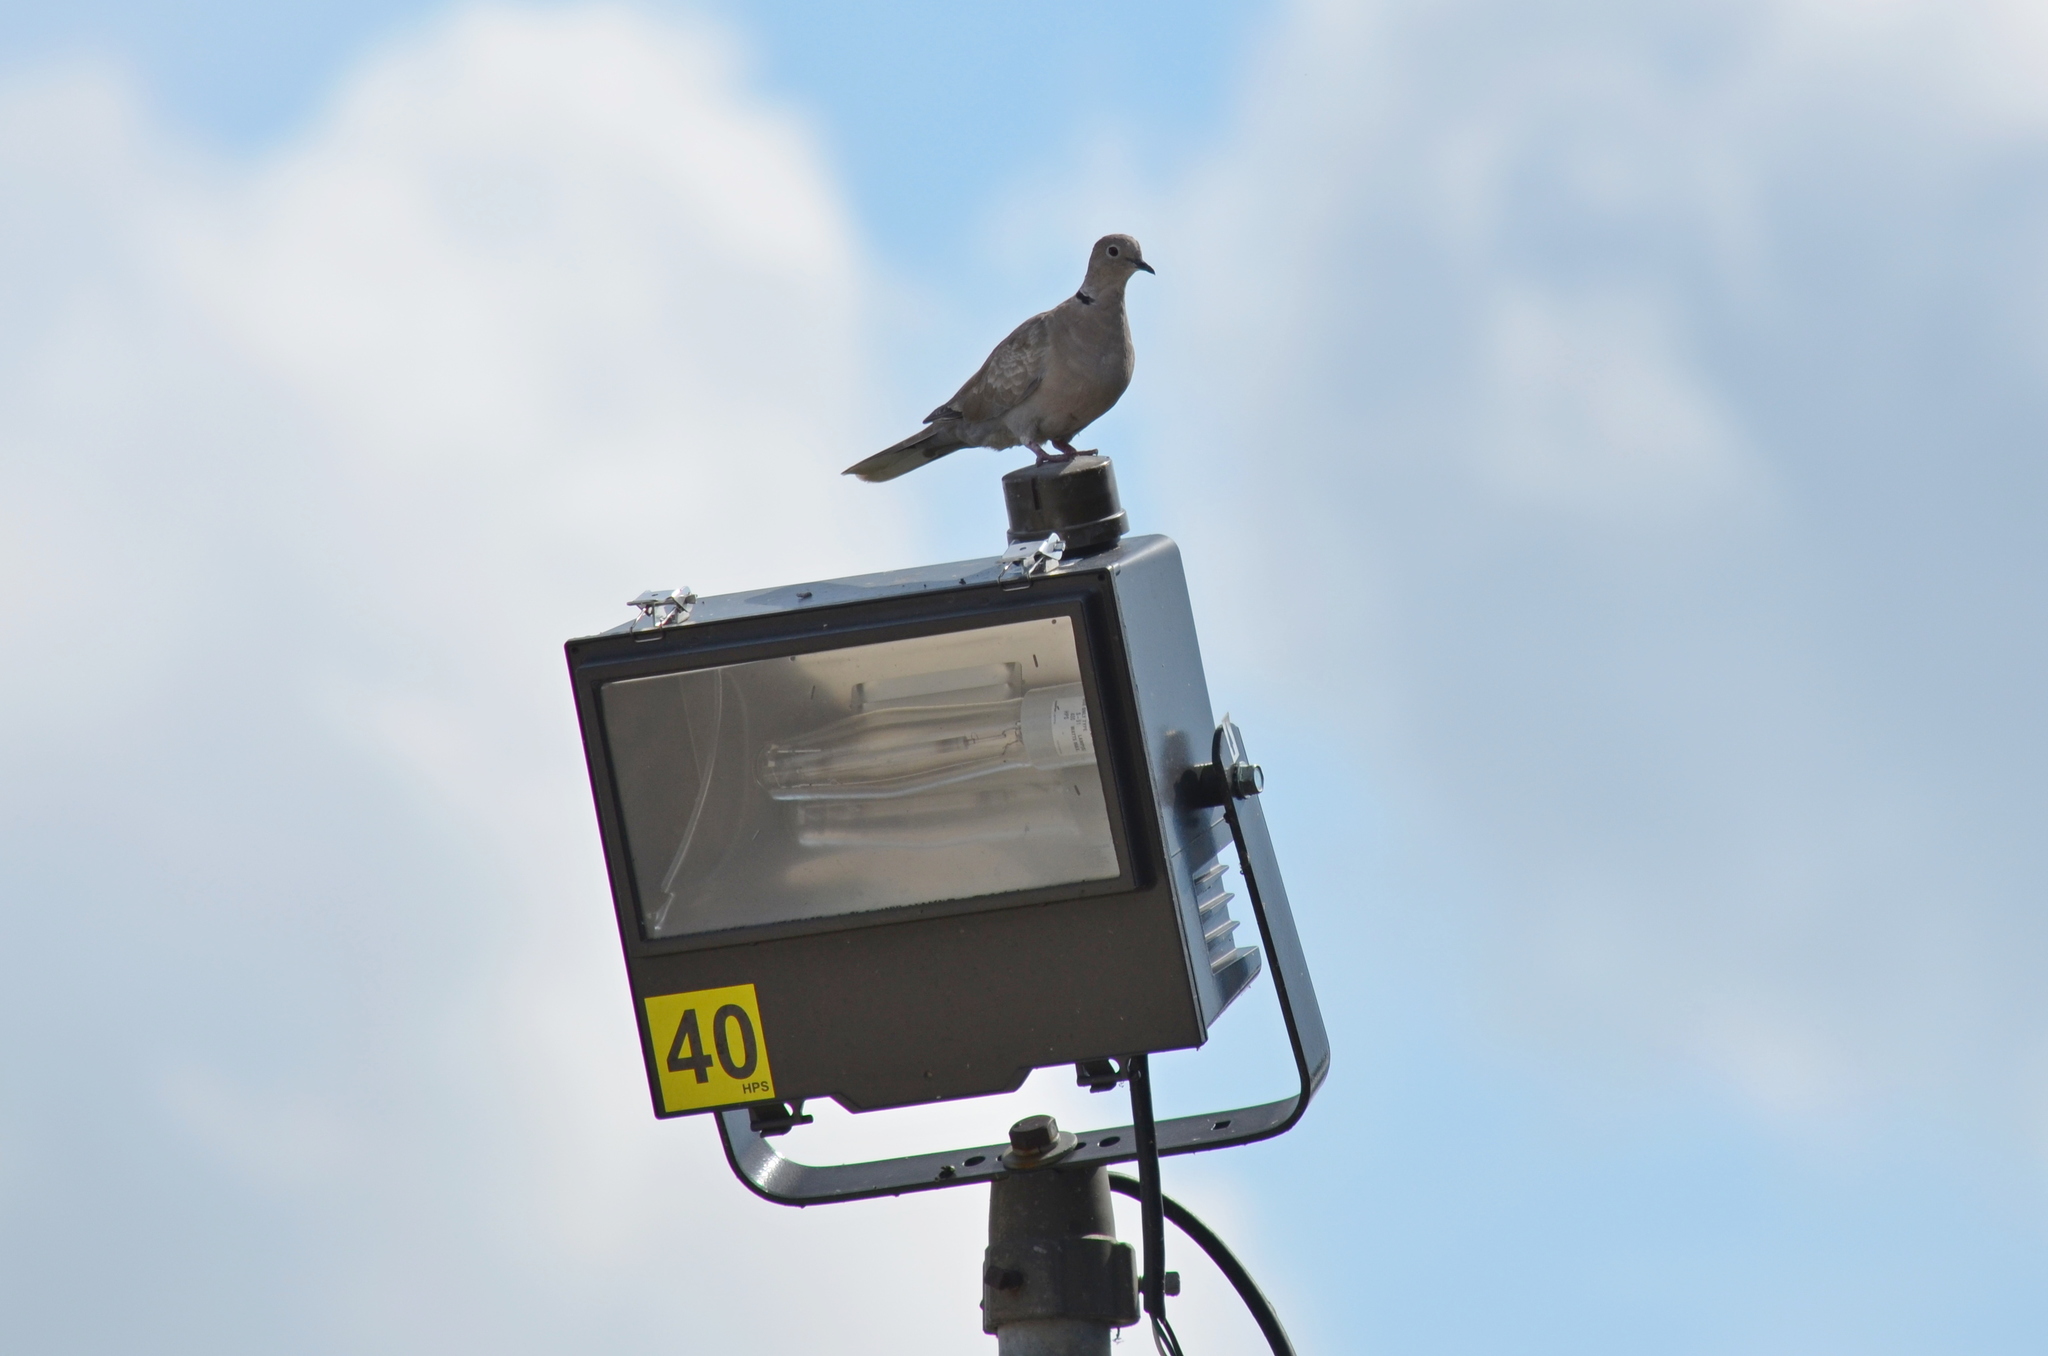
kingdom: Animalia
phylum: Chordata
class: Aves
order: Columbiformes
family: Columbidae
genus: Streptopelia
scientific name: Streptopelia decaocto
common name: Eurasian collared dove
